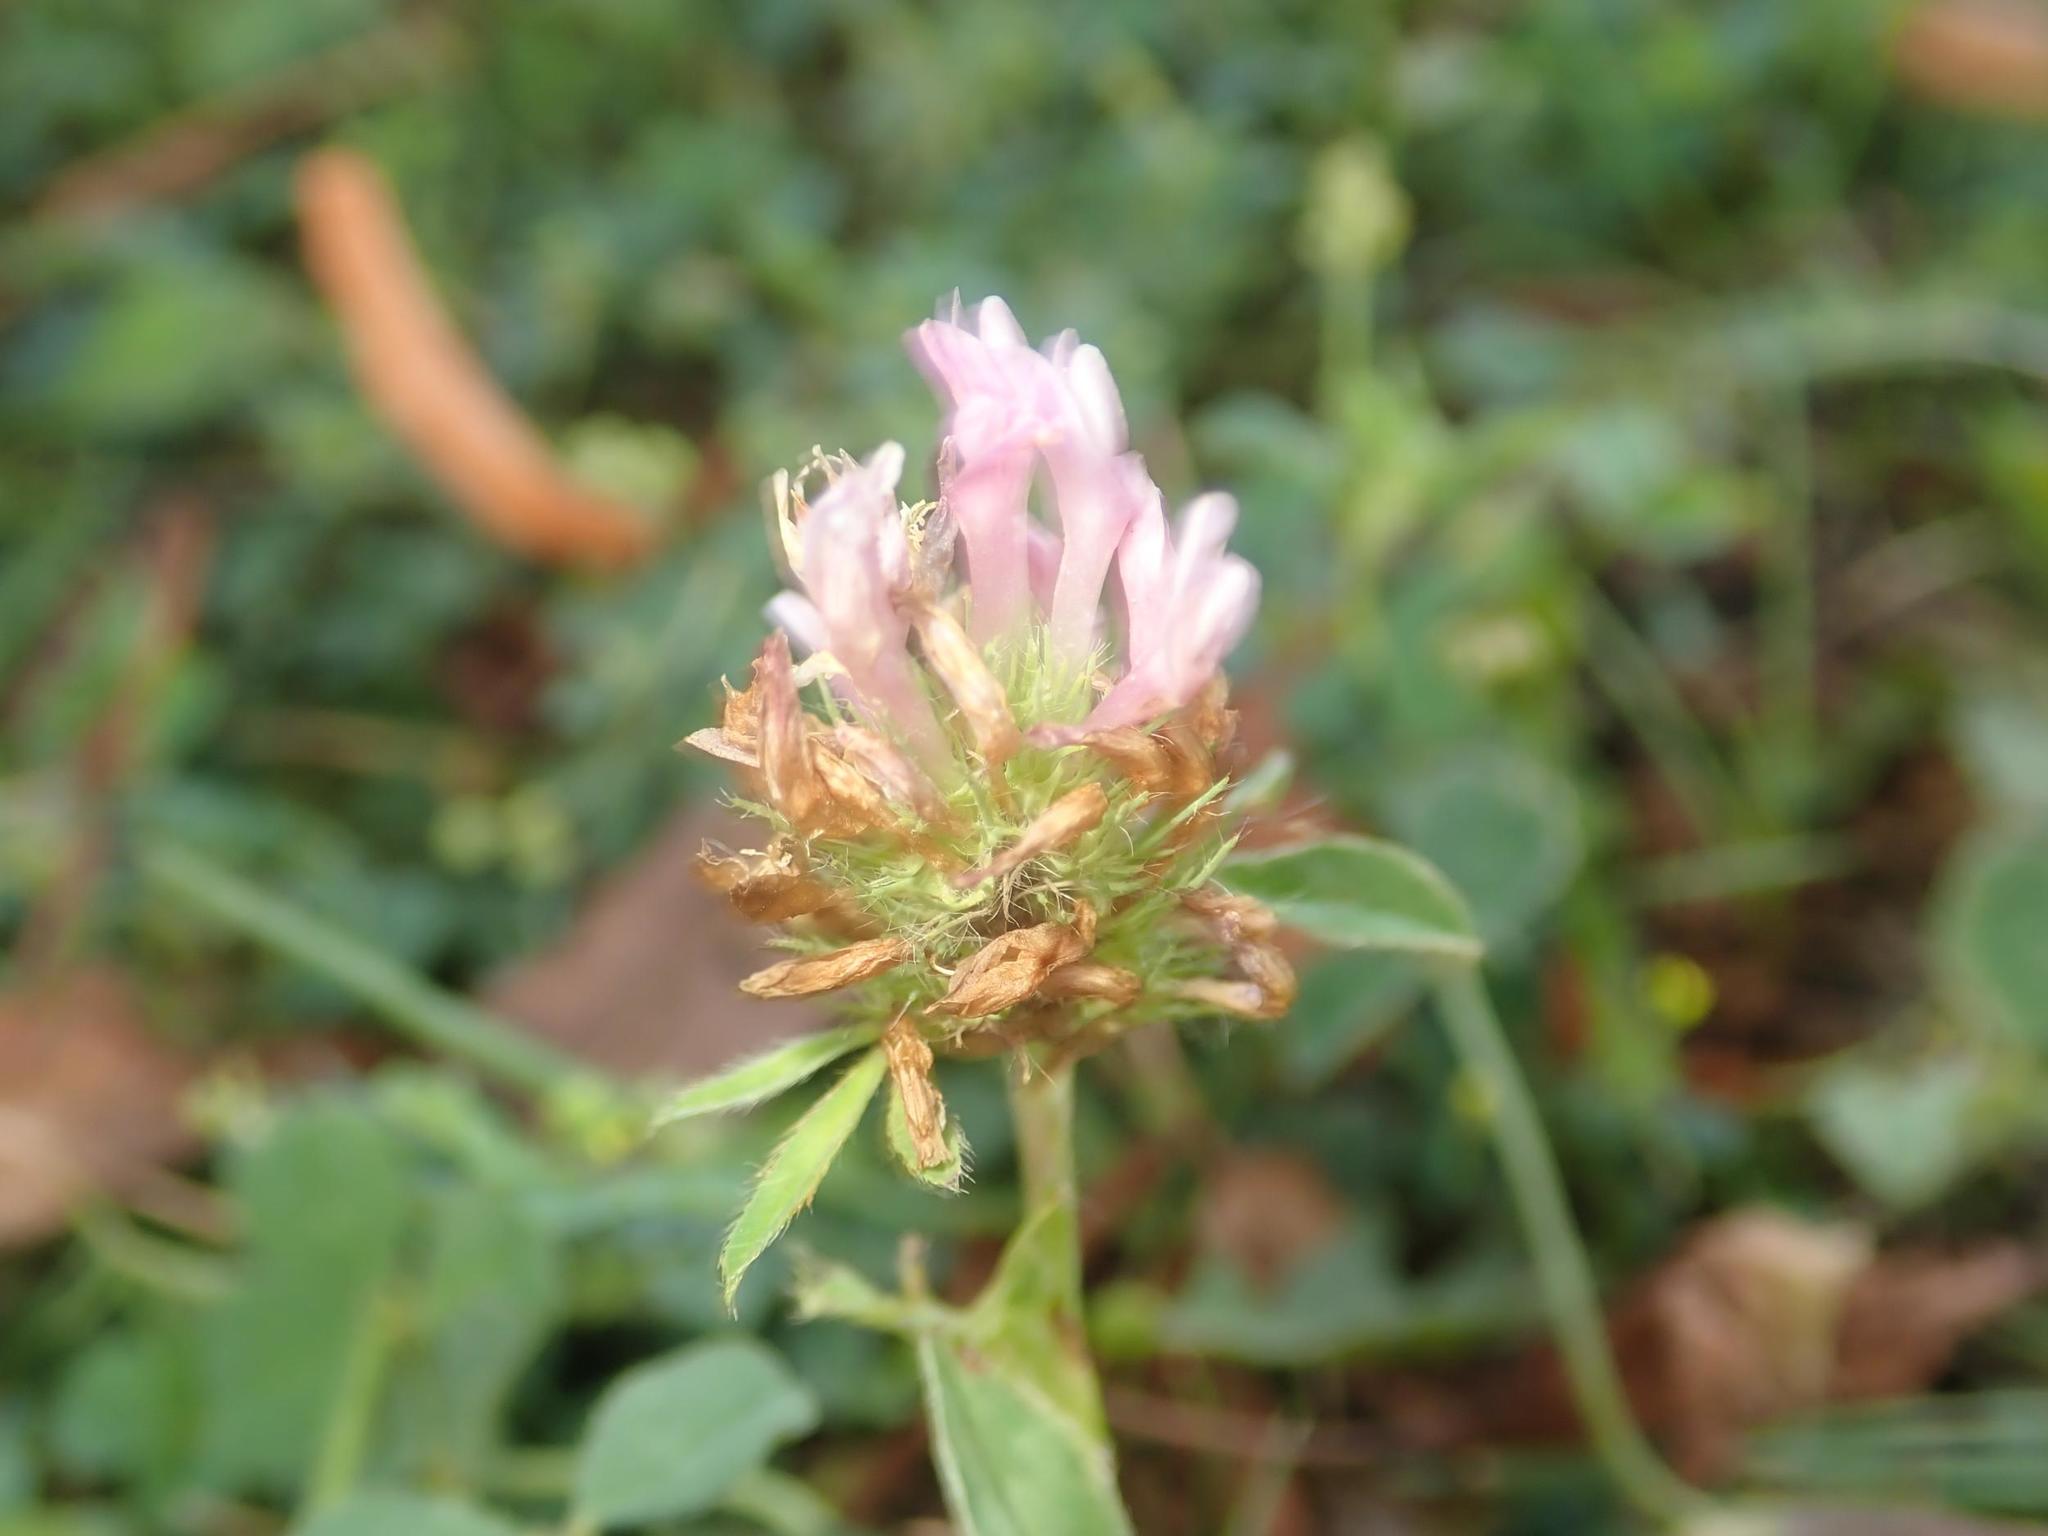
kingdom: Plantae
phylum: Tracheophyta
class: Magnoliopsida
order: Fabales
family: Fabaceae
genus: Trifolium
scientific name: Trifolium pratense
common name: Red clover
